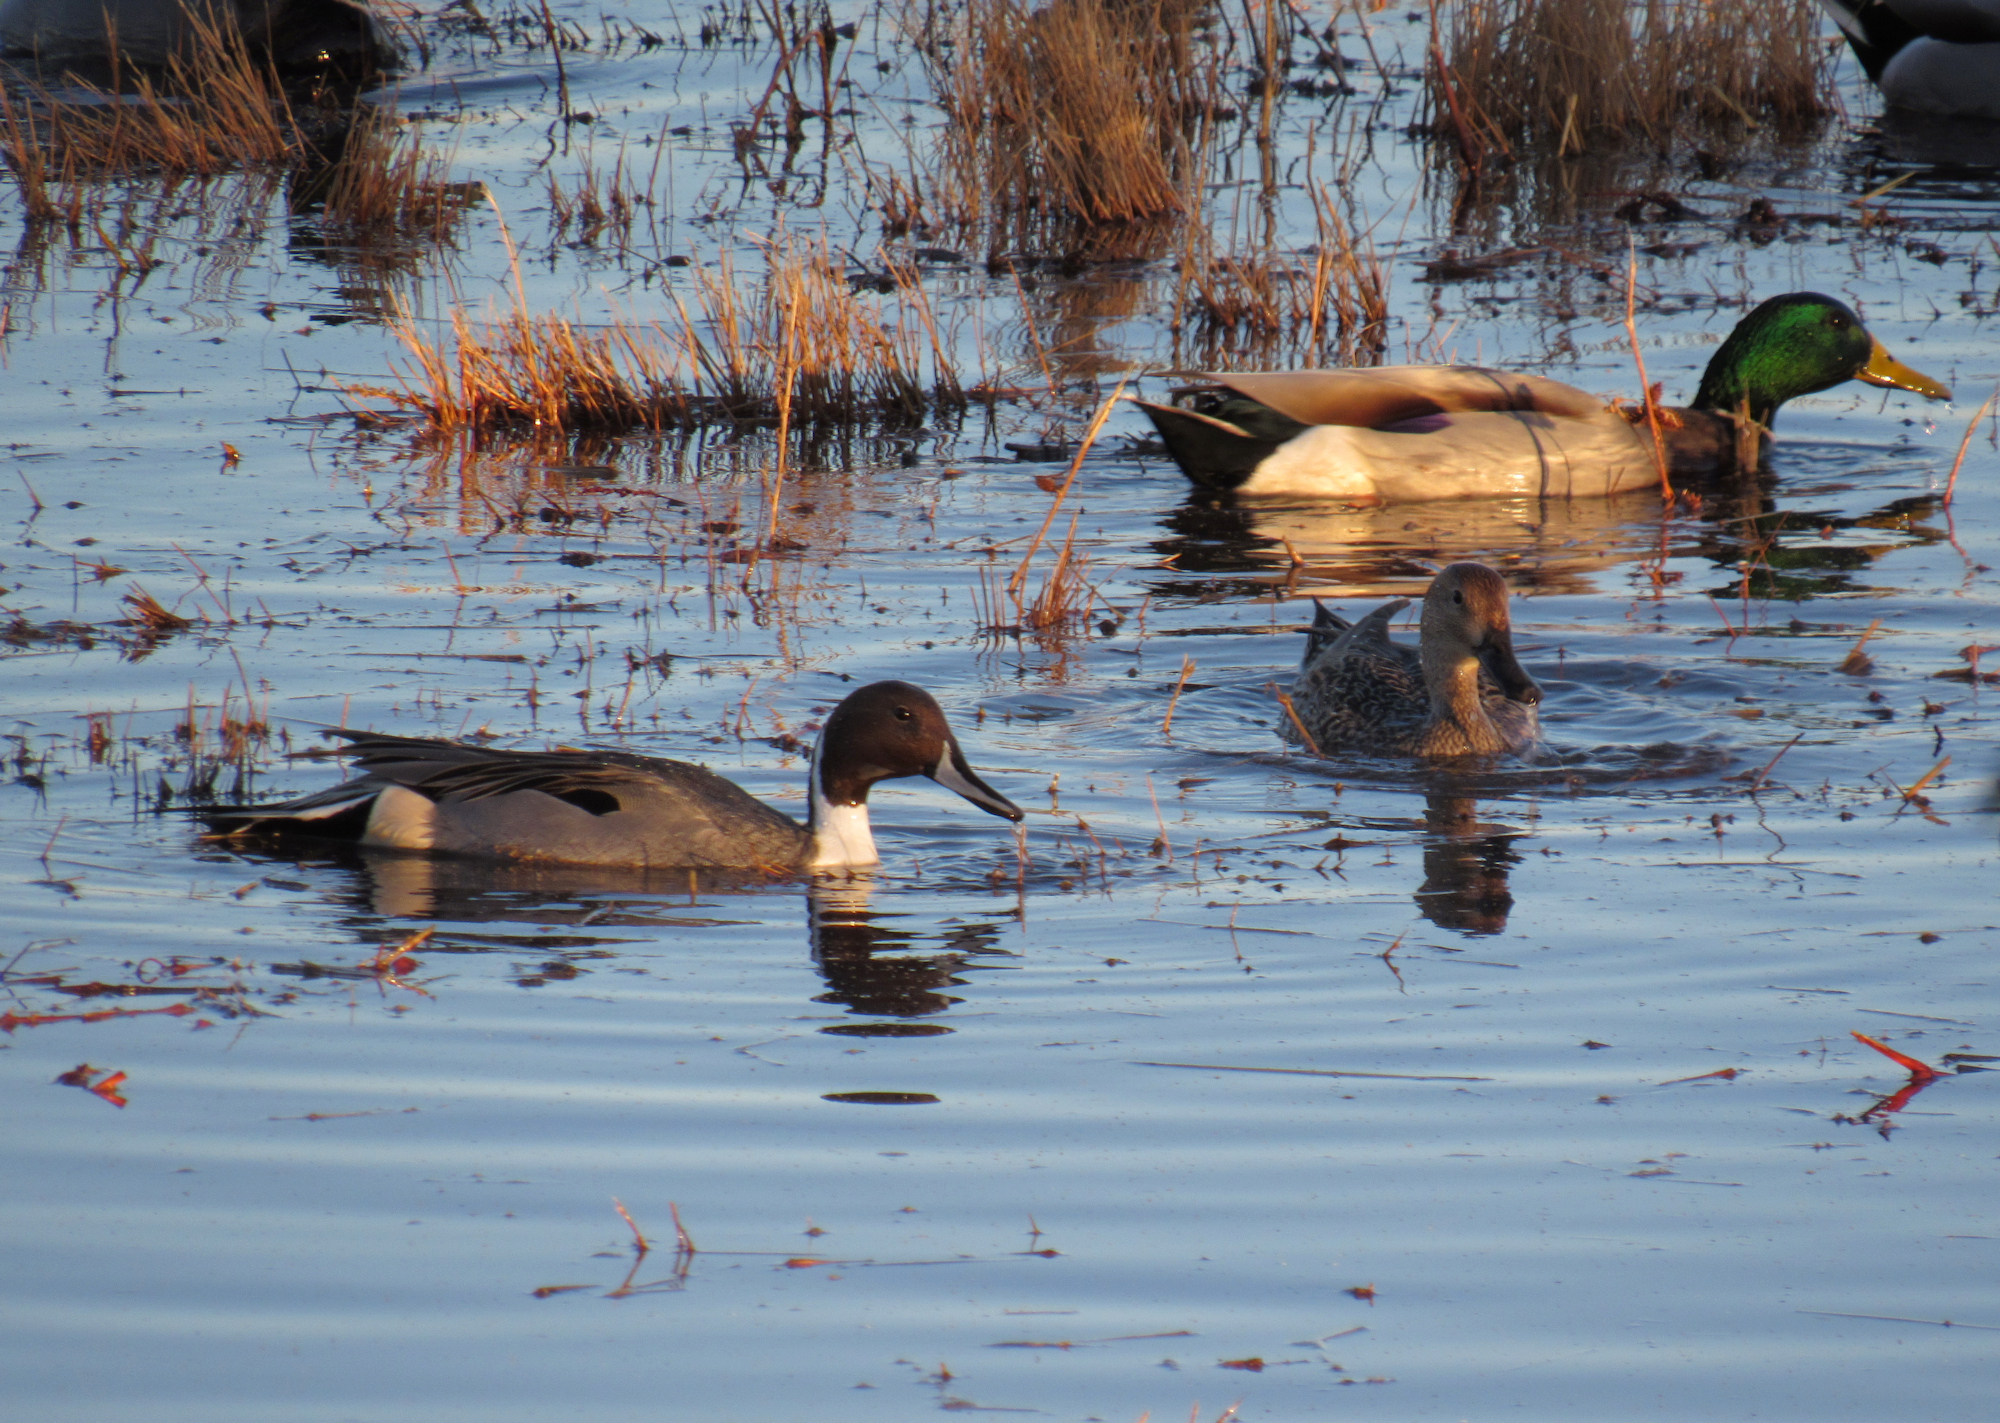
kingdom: Animalia
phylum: Chordata
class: Aves
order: Anseriformes
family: Anatidae
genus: Anas
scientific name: Anas acuta
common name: Northern pintail
